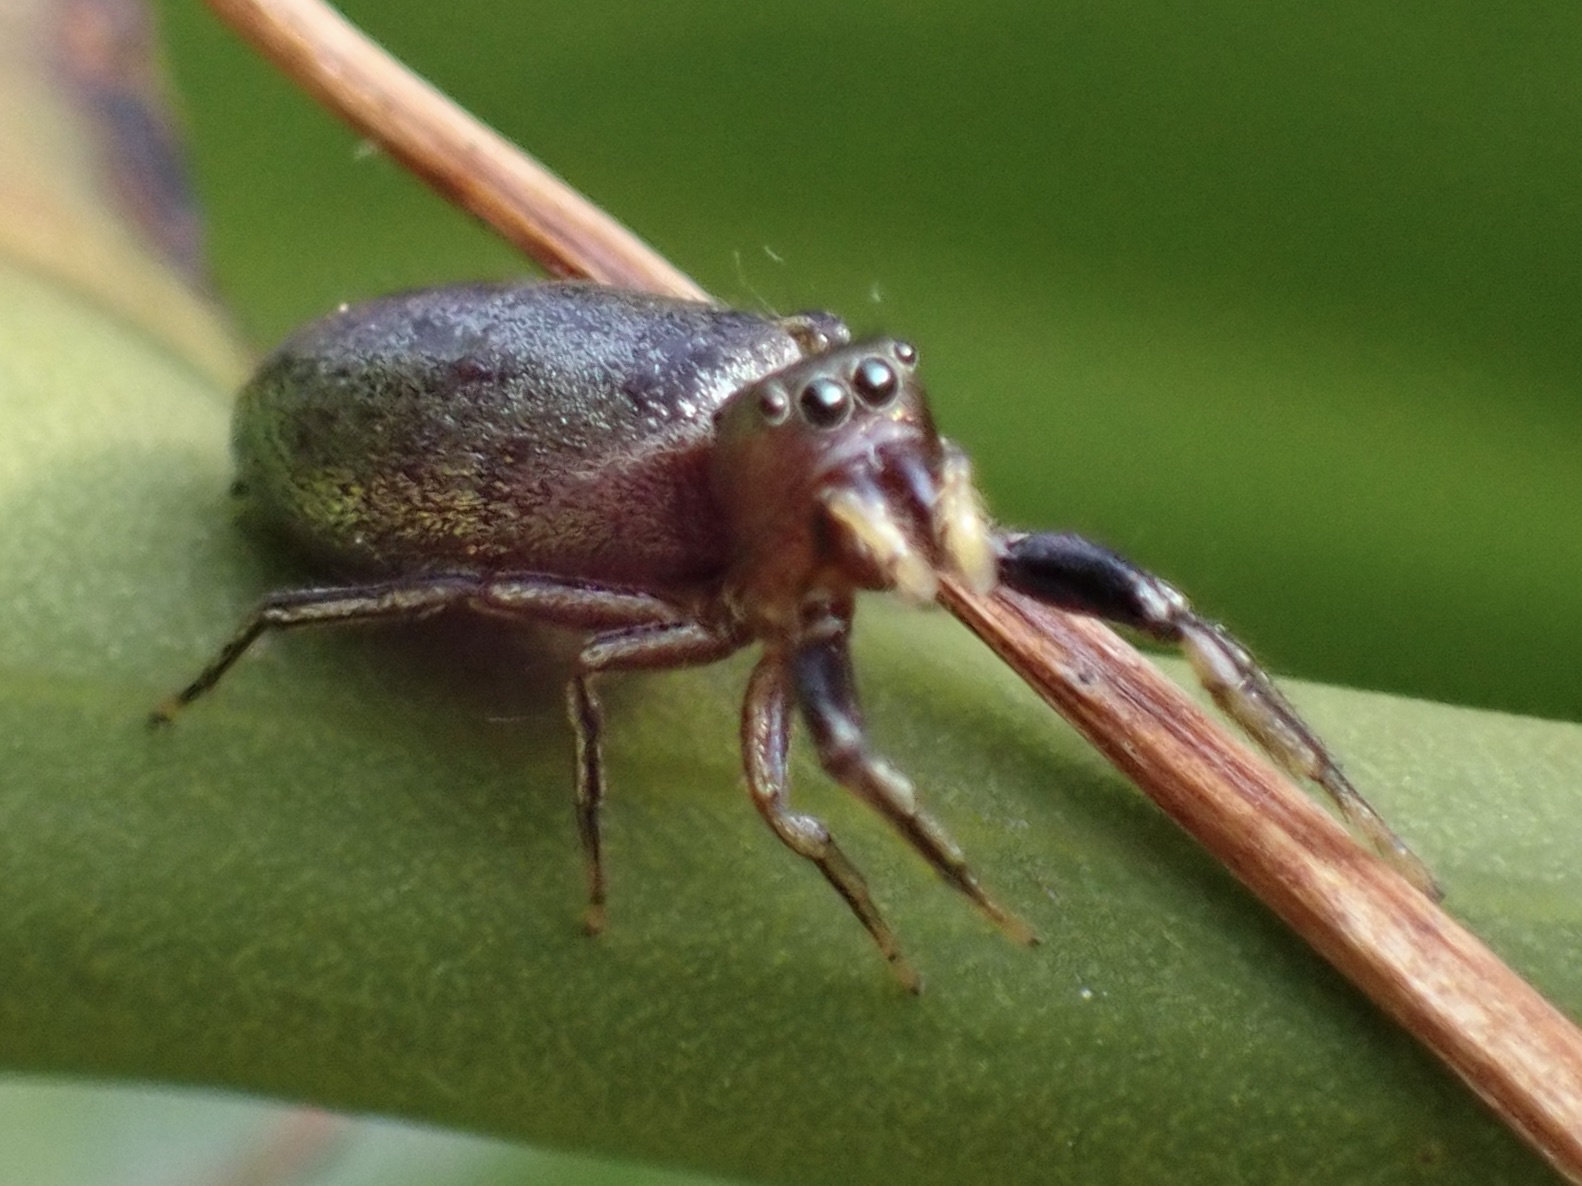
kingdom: Animalia
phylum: Arthropoda
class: Arachnida
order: Araneae
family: Salticidae
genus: Tutelina
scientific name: Tutelina elegans
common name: Thin-spined jumping spider
